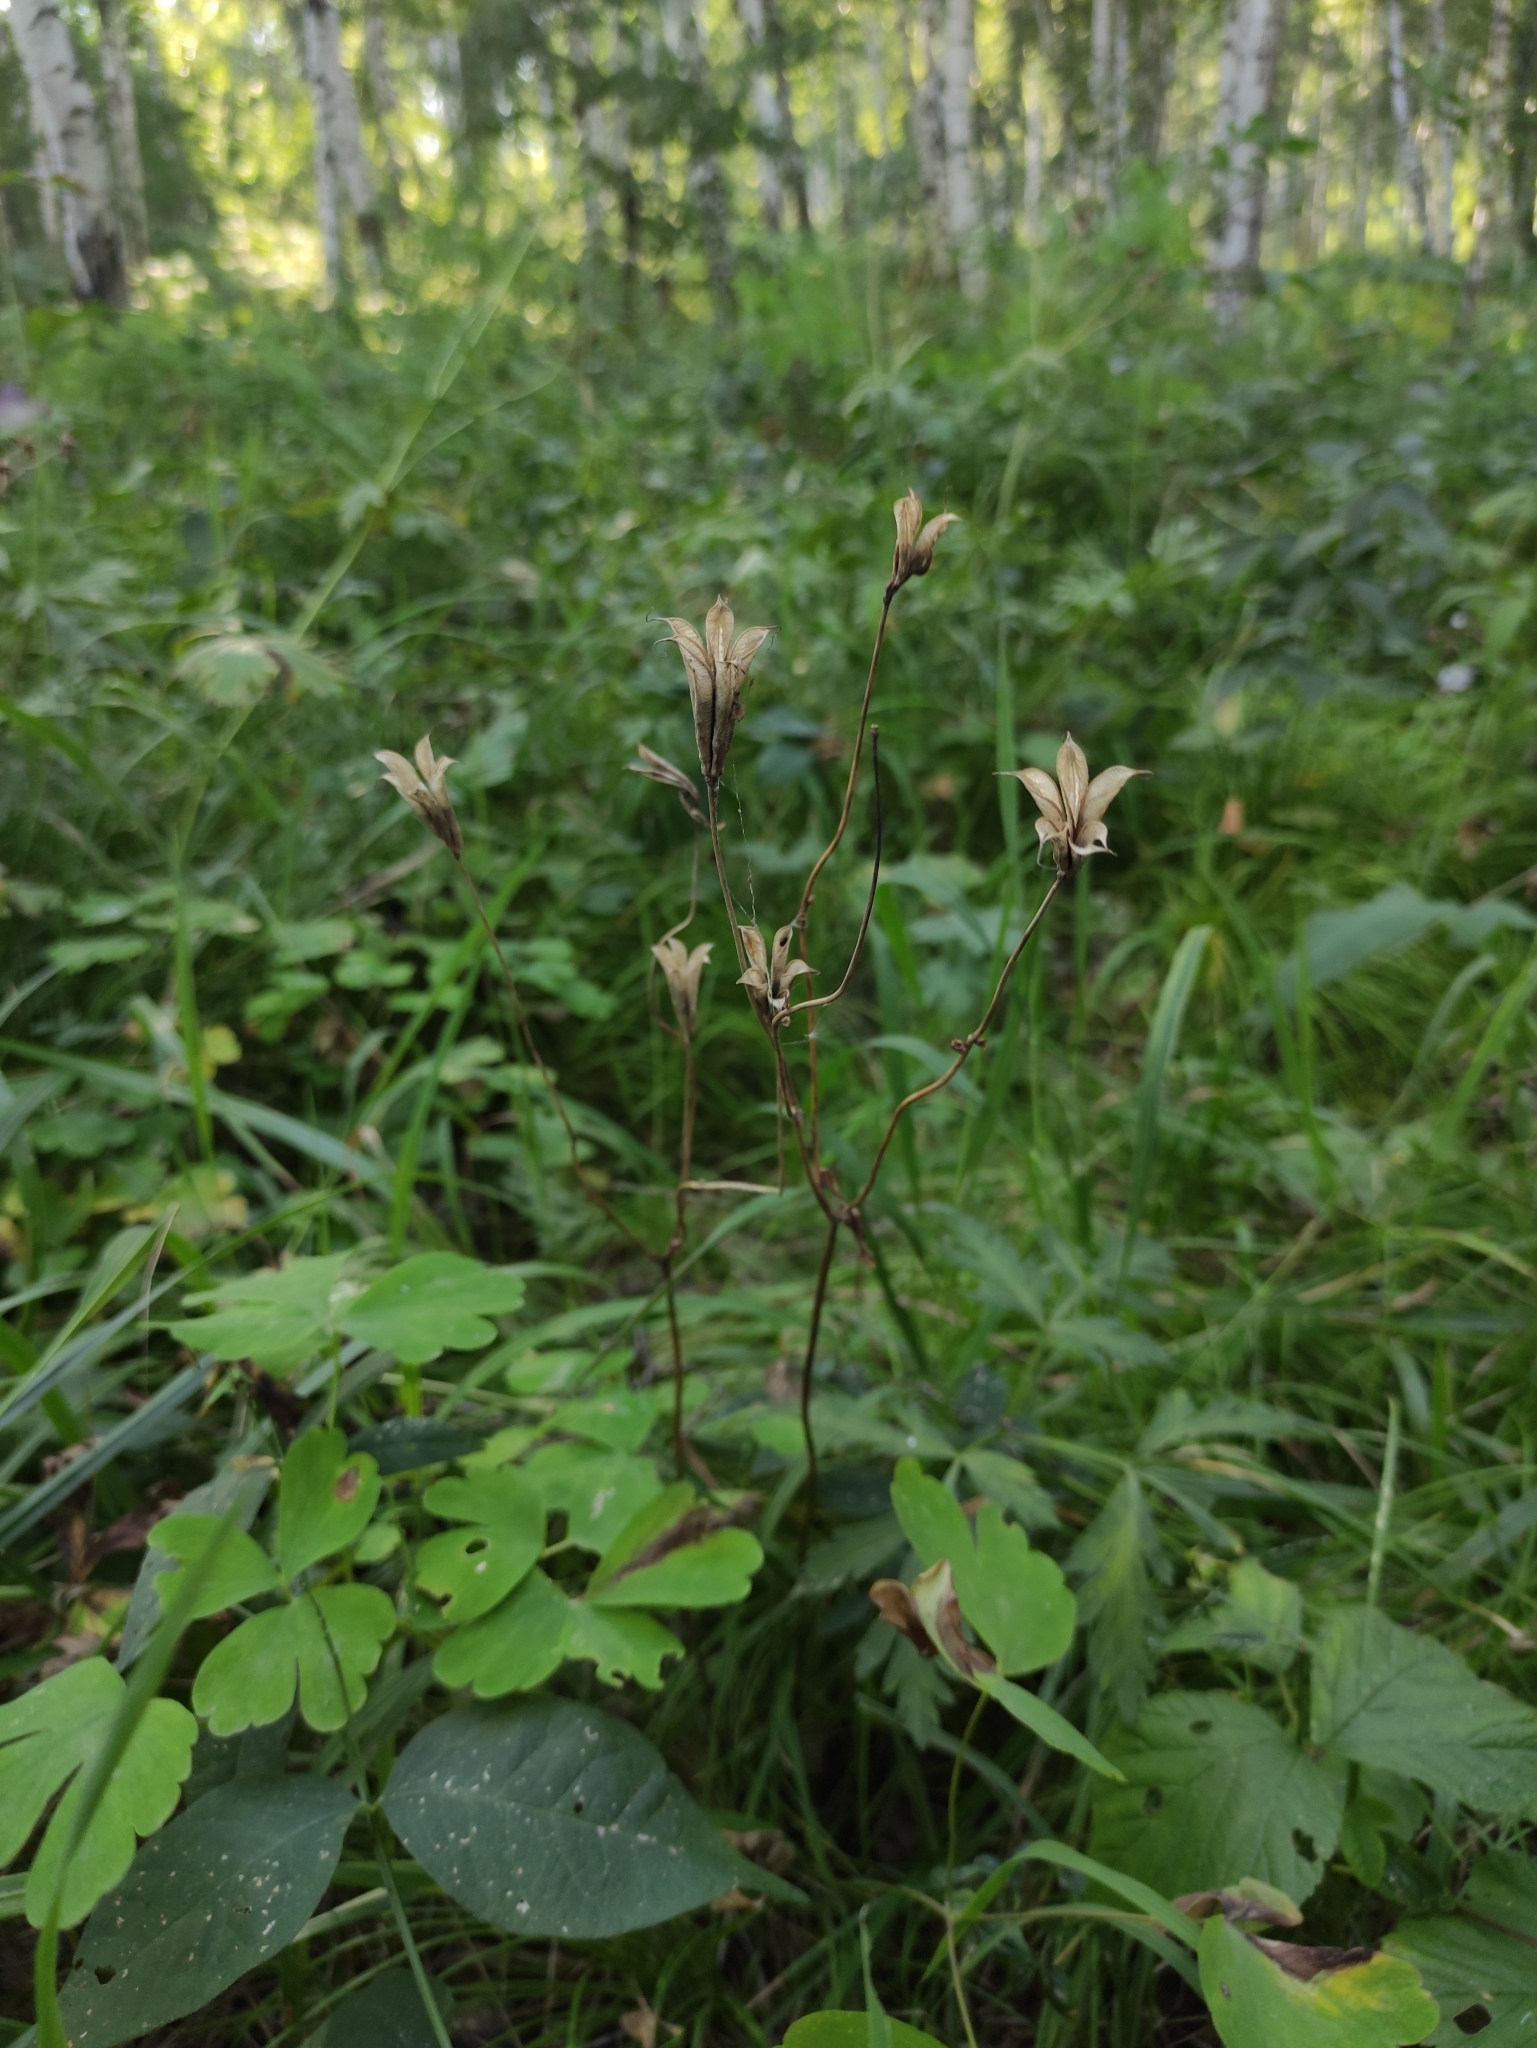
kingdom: Plantae
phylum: Tracheophyta
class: Magnoliopsida
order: Ranunculales
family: Ranunculaceae
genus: Aquilegia
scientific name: Aquilegia sibirica
